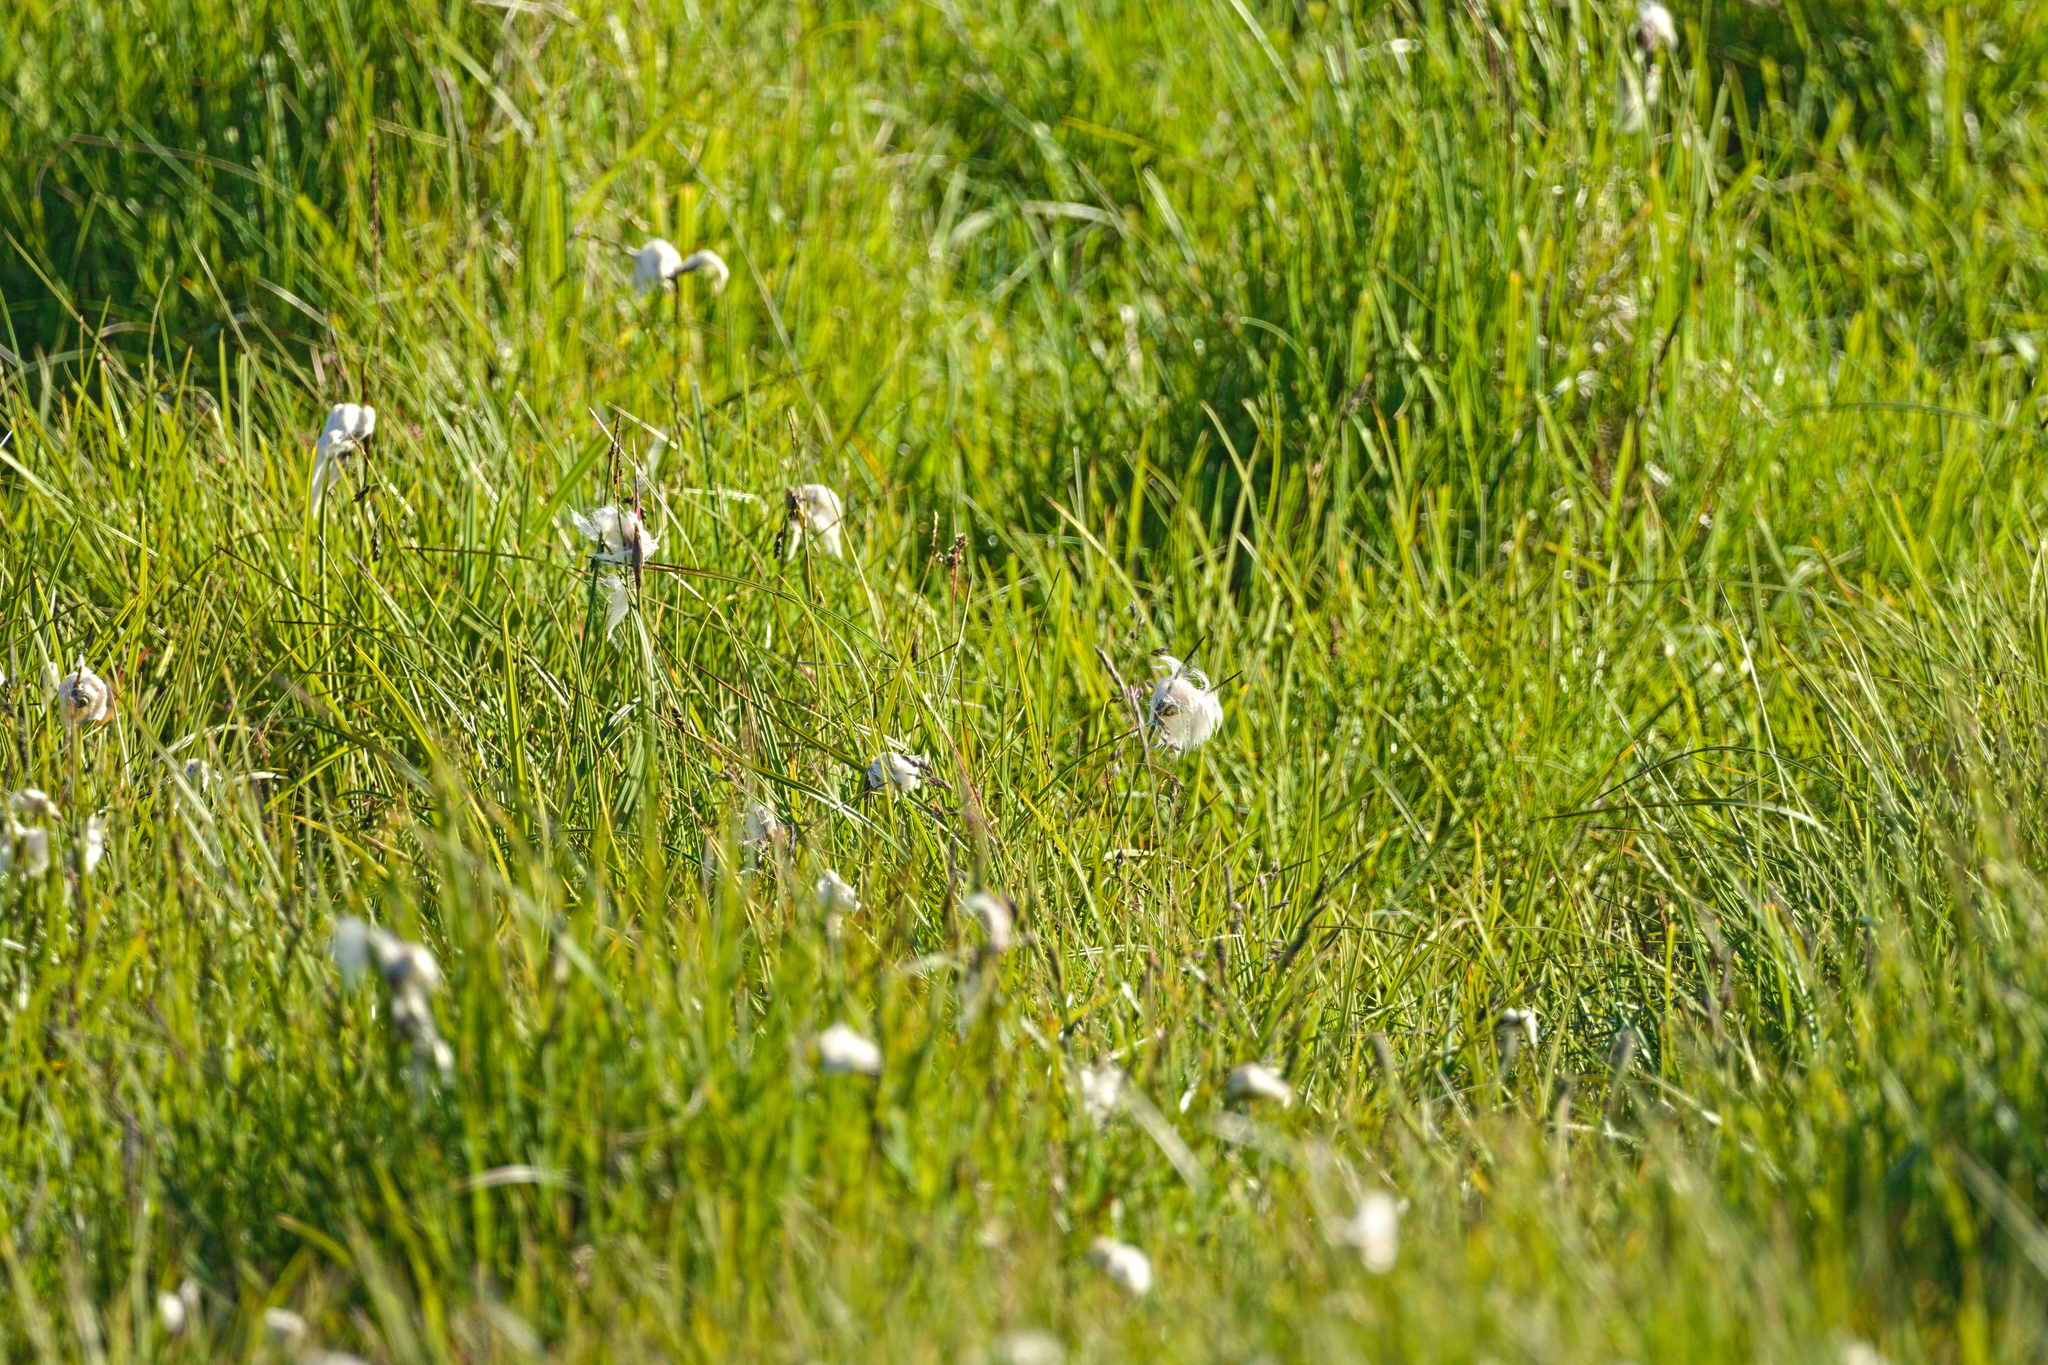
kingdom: Plantae
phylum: Tracheophyta
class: Liliopsida
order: Poales
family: Cyperaceae
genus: Eriophorum
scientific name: Eriophorum angustifolium
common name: Common cottongrass
